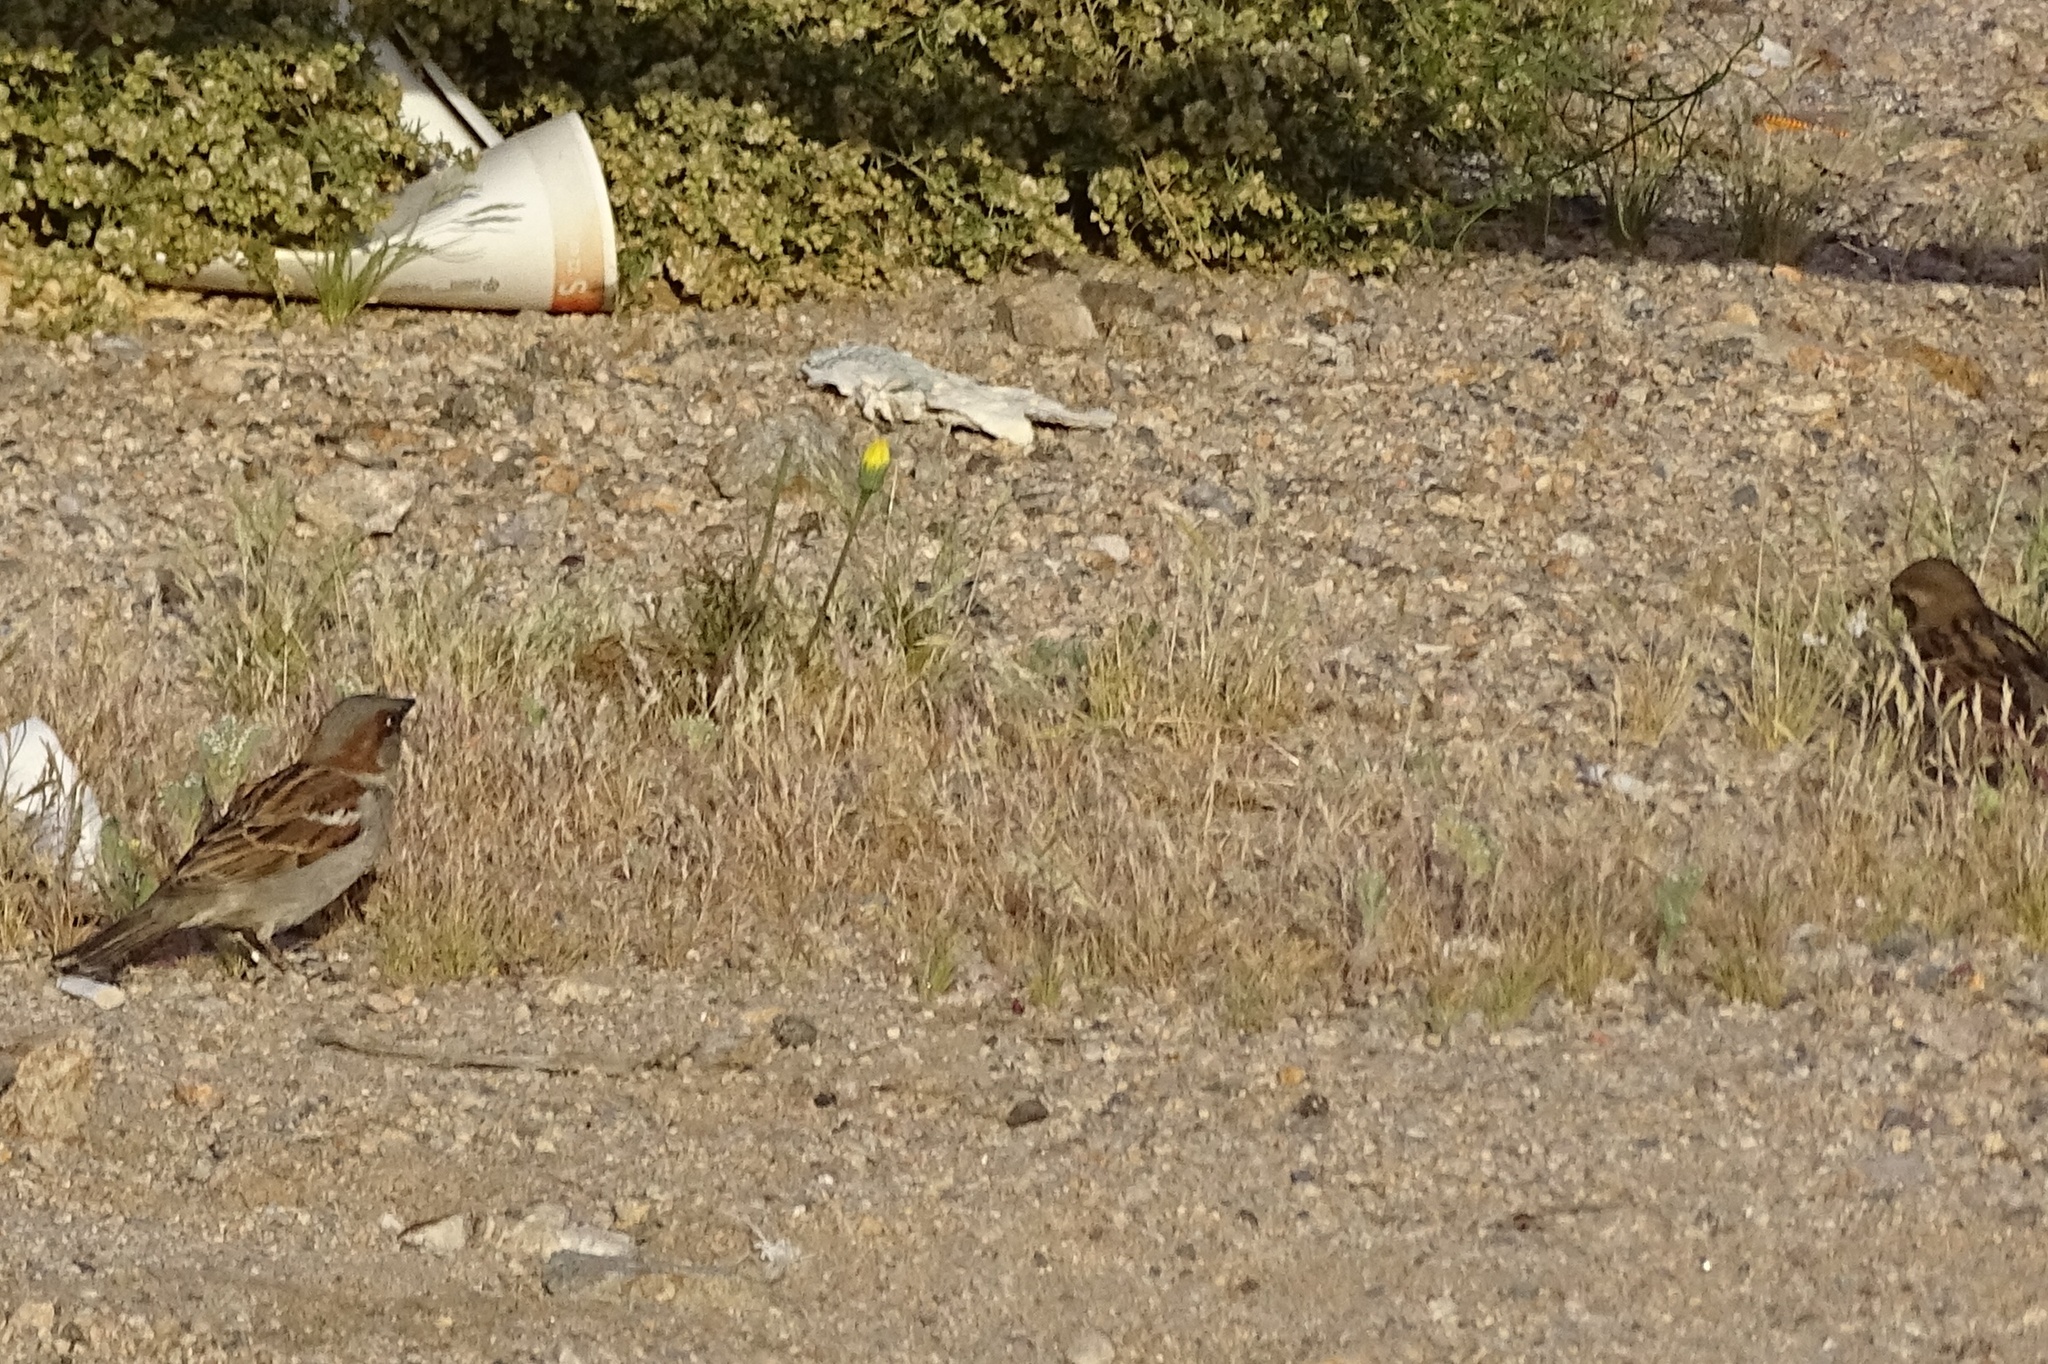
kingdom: Animalia
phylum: Chordata
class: Aves
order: Passeriformes
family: Passeridae
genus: Passer
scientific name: Passer domesticus
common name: House sparrow
